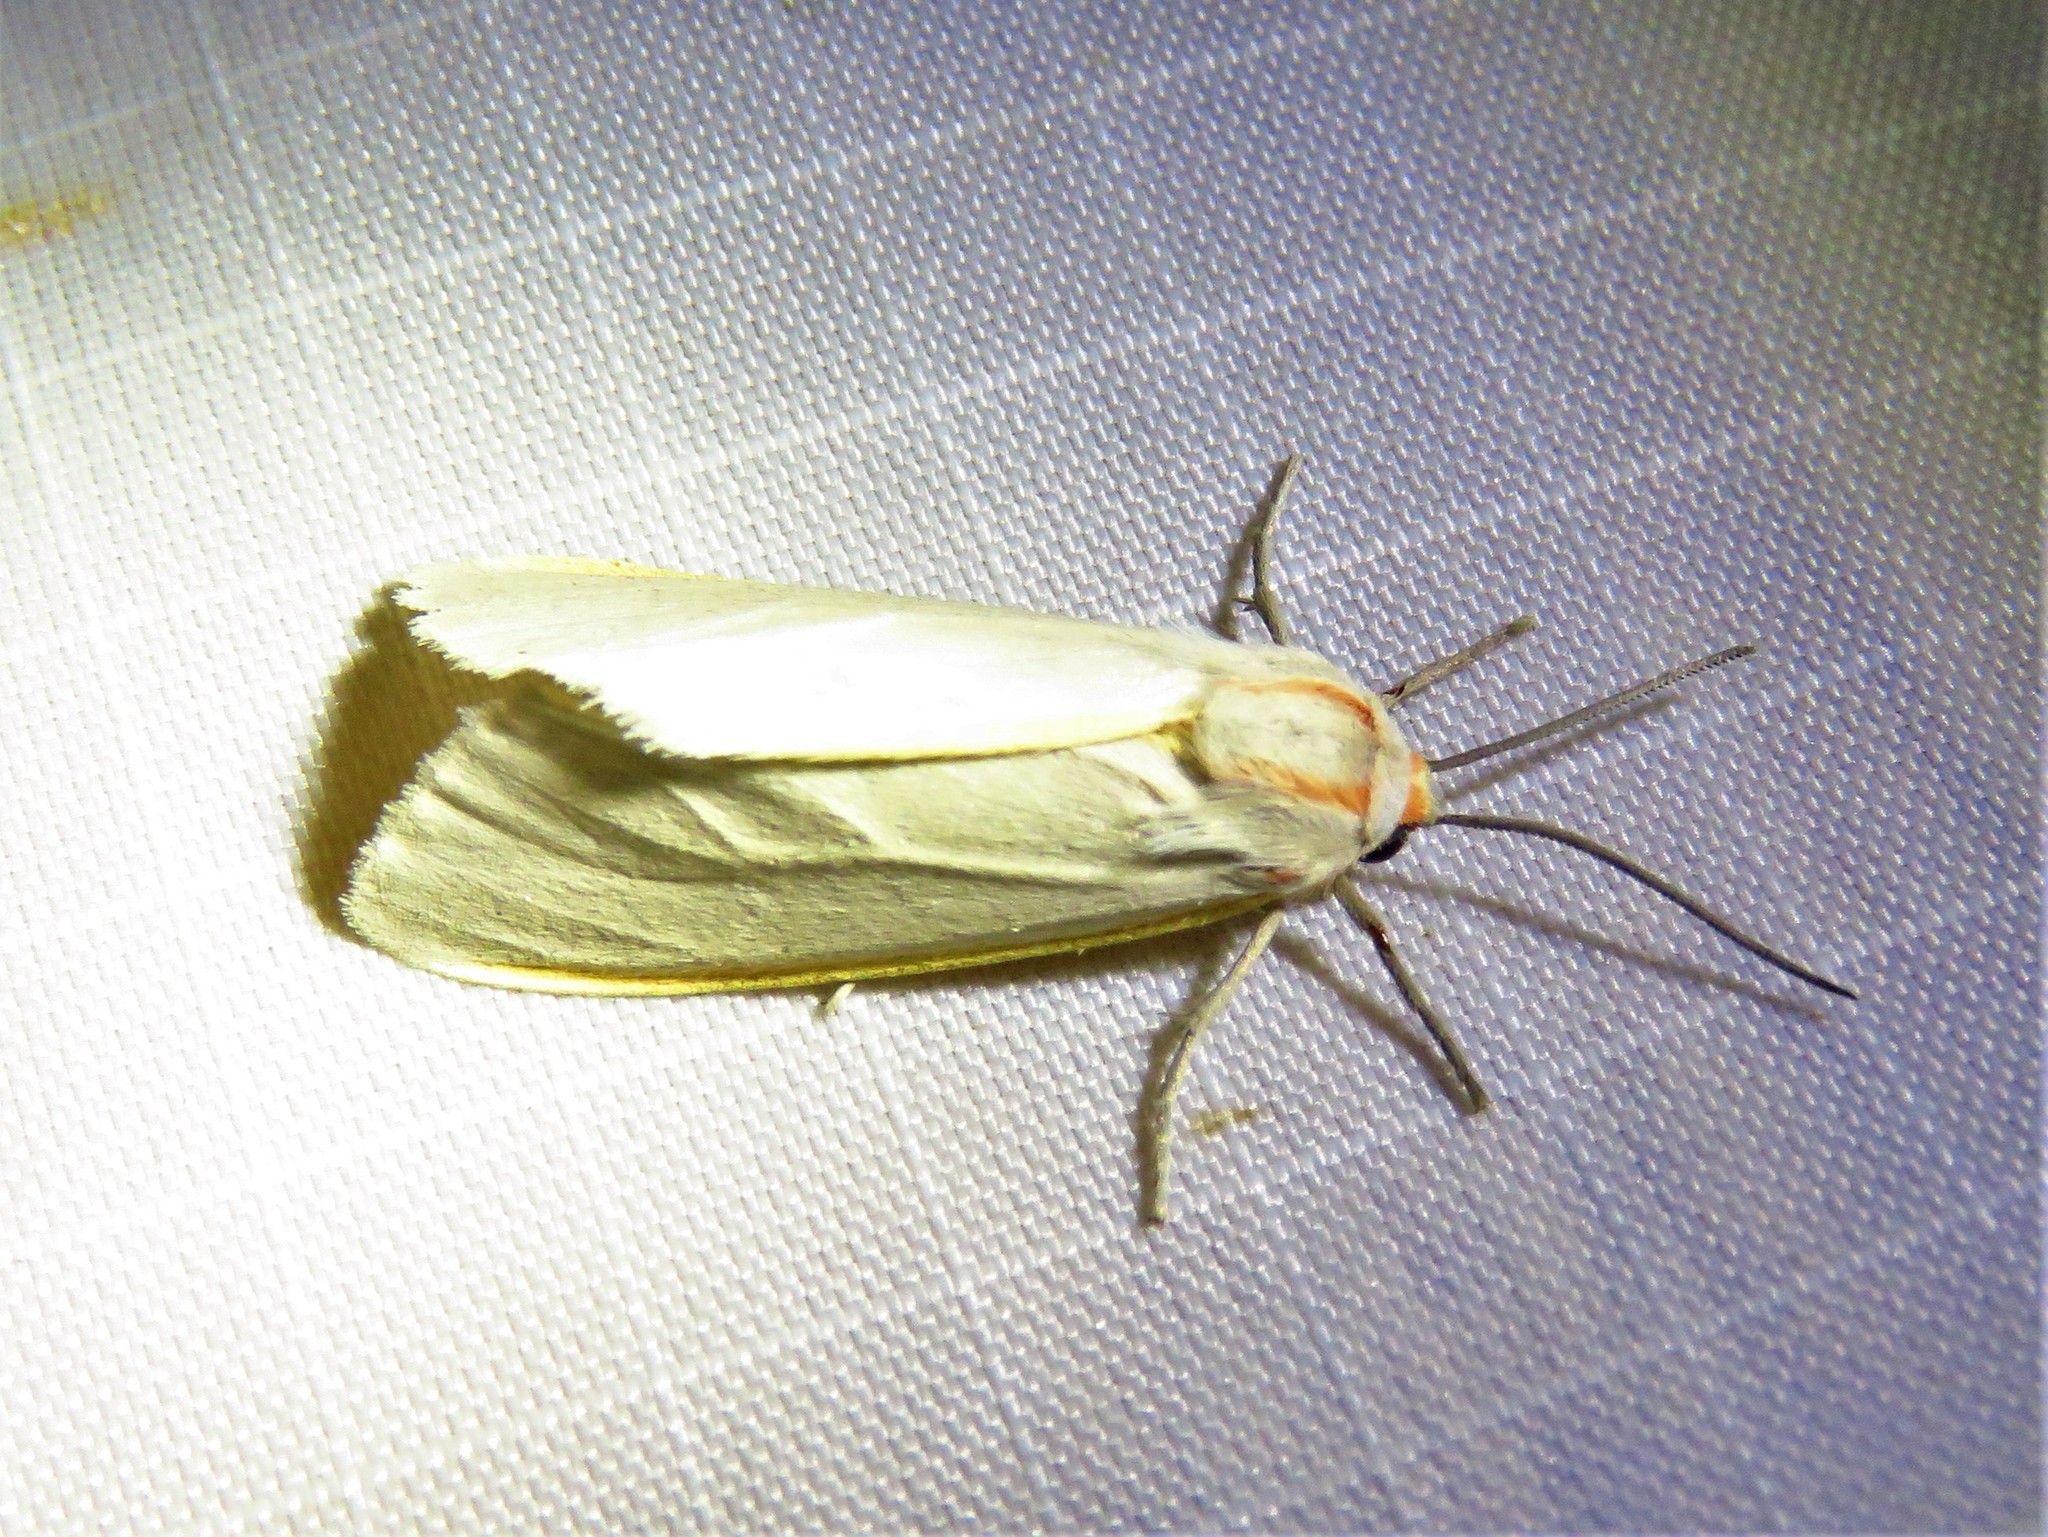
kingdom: Animalia
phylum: Arthropoda
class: Insecta
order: Lepidoptera
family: Erebidae
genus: Pygarctia
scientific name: Pygarctia abdominalis
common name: Yellow-edged pygarctia moth
